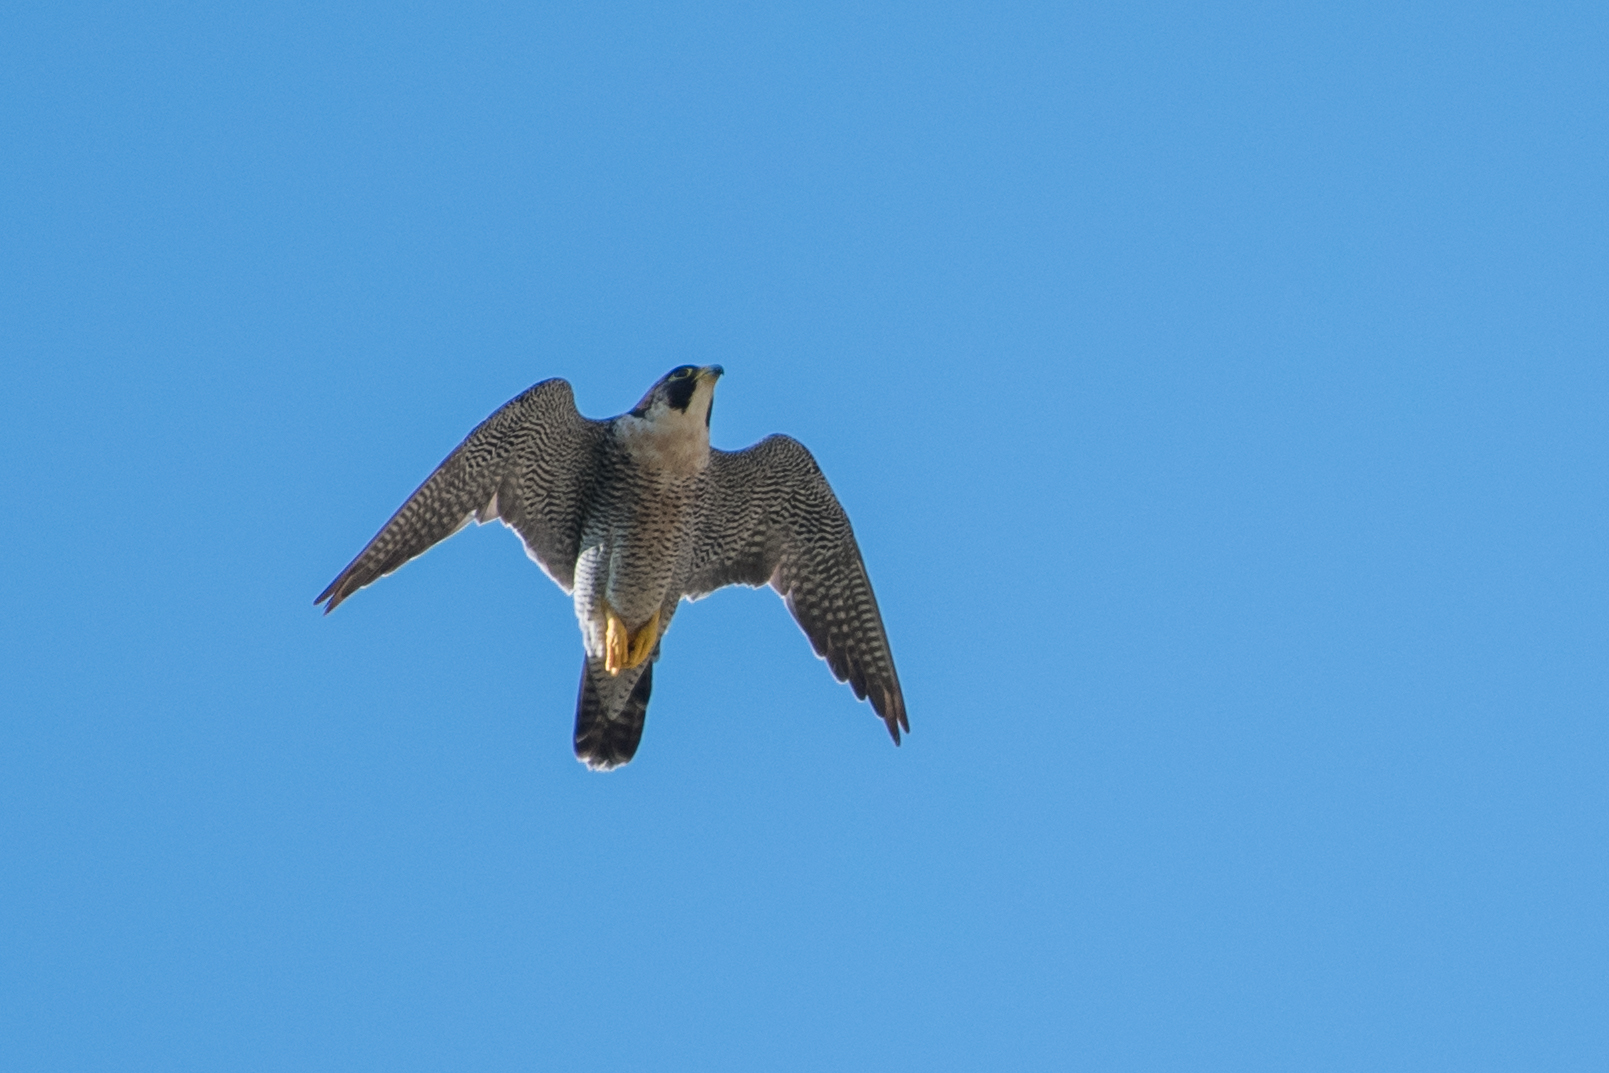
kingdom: Animalia
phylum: Chordata
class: Aves
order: Falconiformes
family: Falconidae
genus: Falco
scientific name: Falco peregrinus
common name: Peregrine falcon
